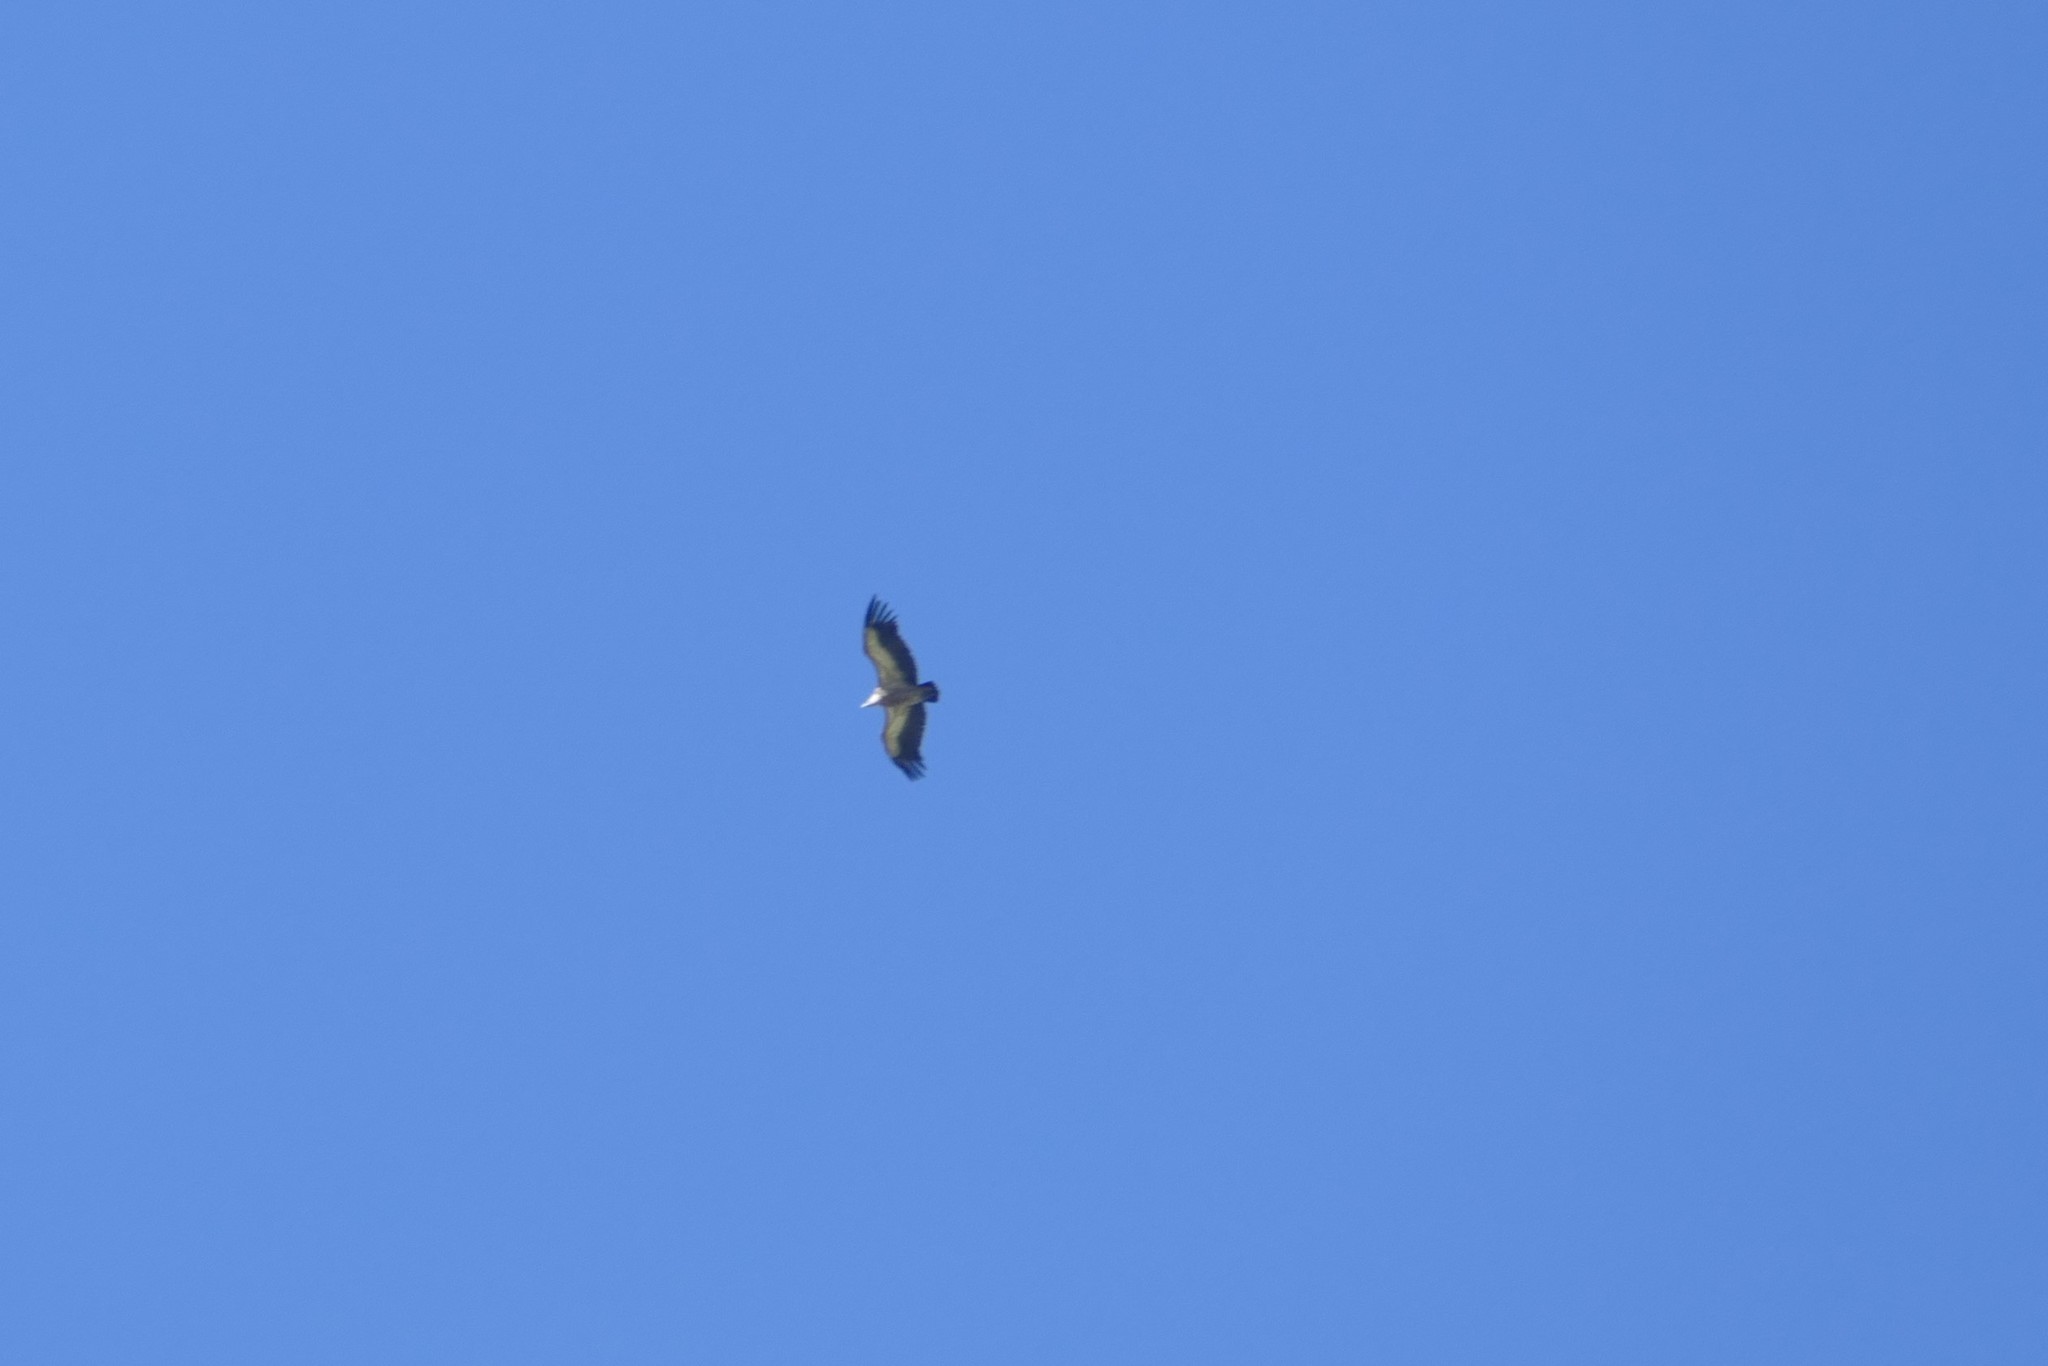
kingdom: Animalia
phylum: Chordata
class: Aves
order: Accipitriformes
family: Accipitridae
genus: Gyps
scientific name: Gyps fulvus
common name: Griffon vulture
